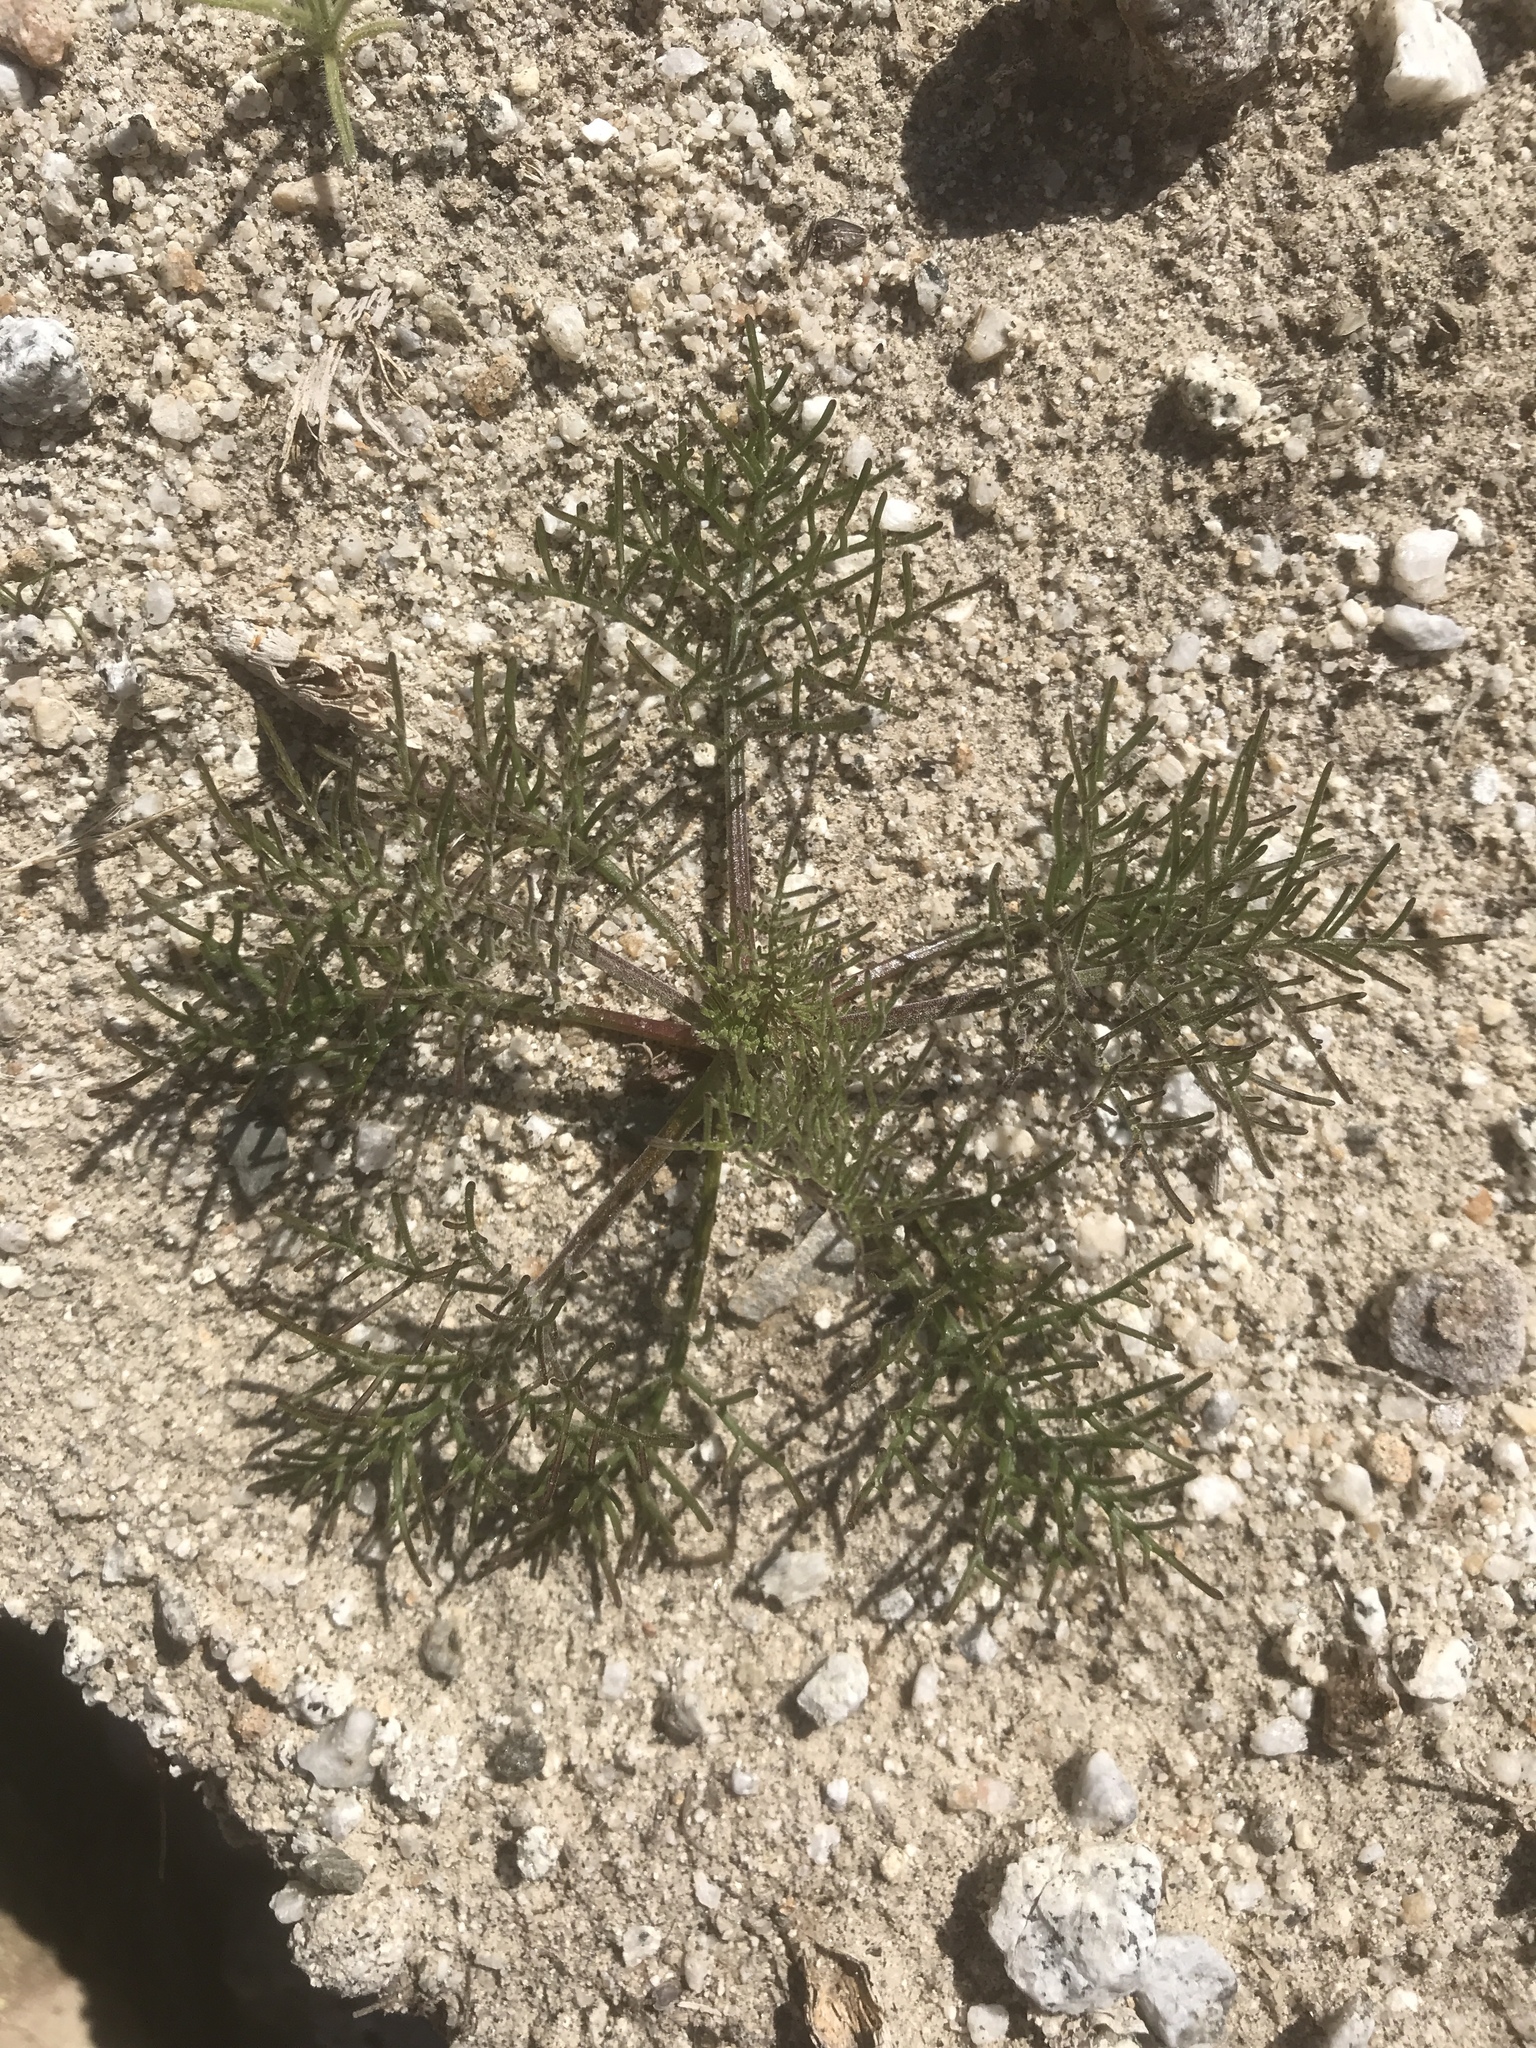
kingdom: Plantae
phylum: Tracheophyta
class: Magnoliopsida
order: Asterales
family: Asteraceae
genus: Chaenactis
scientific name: Chaenactis carphoclinia
